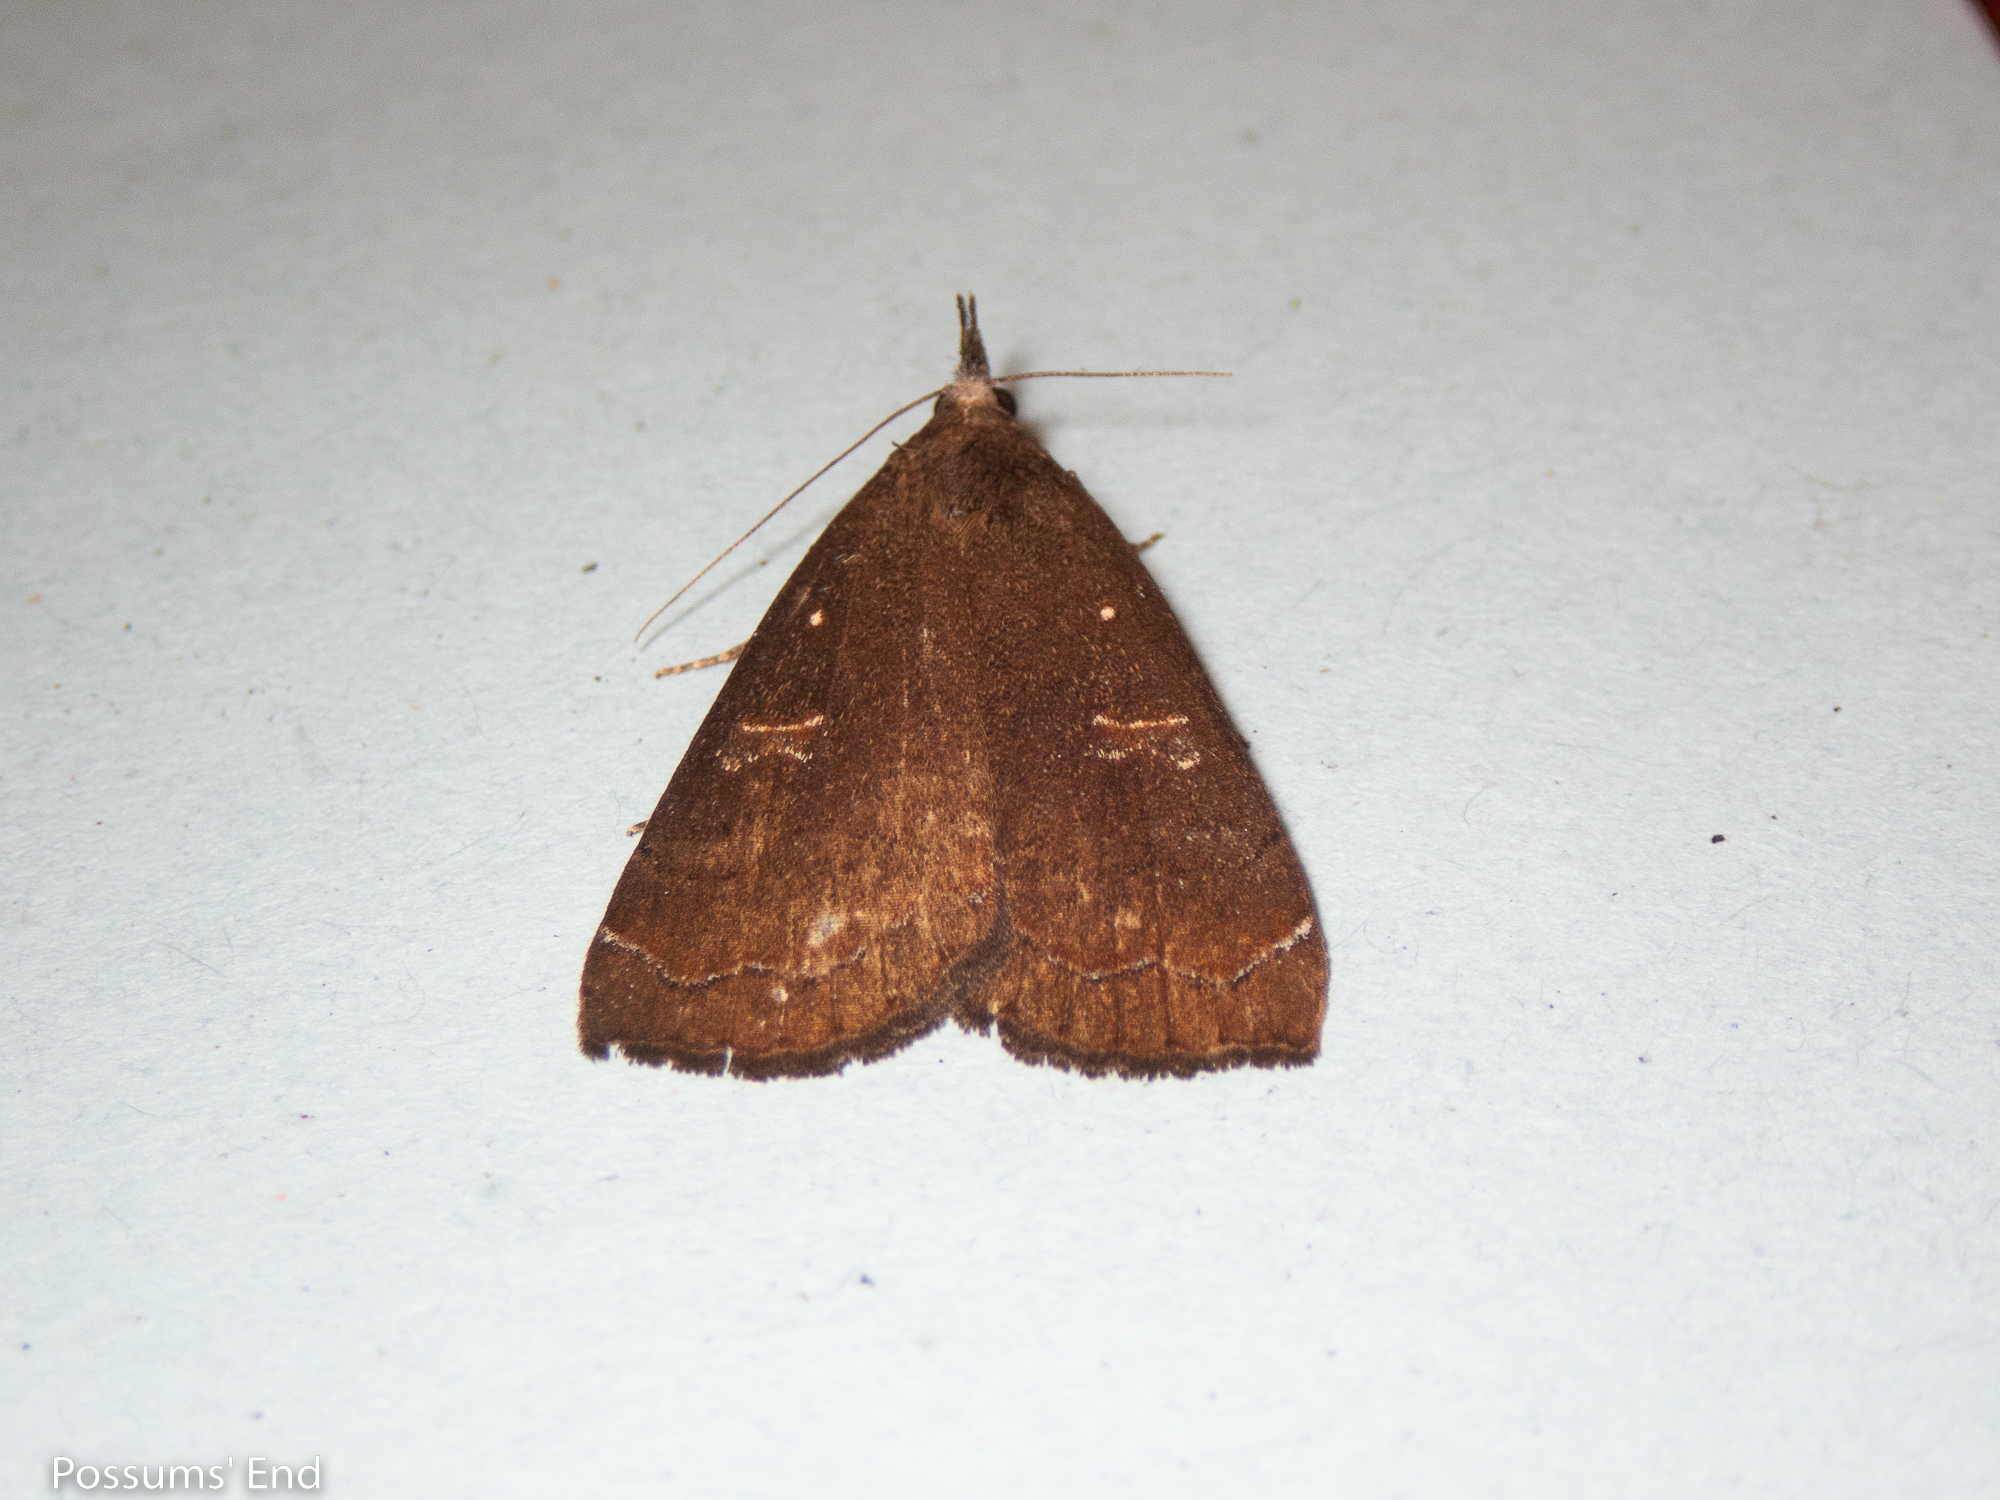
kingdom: Animalia
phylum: Arthropoda
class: Insecta
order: Lepidoptera
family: Erebidae
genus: Rhapsa
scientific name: Rhapsa scotosialis
